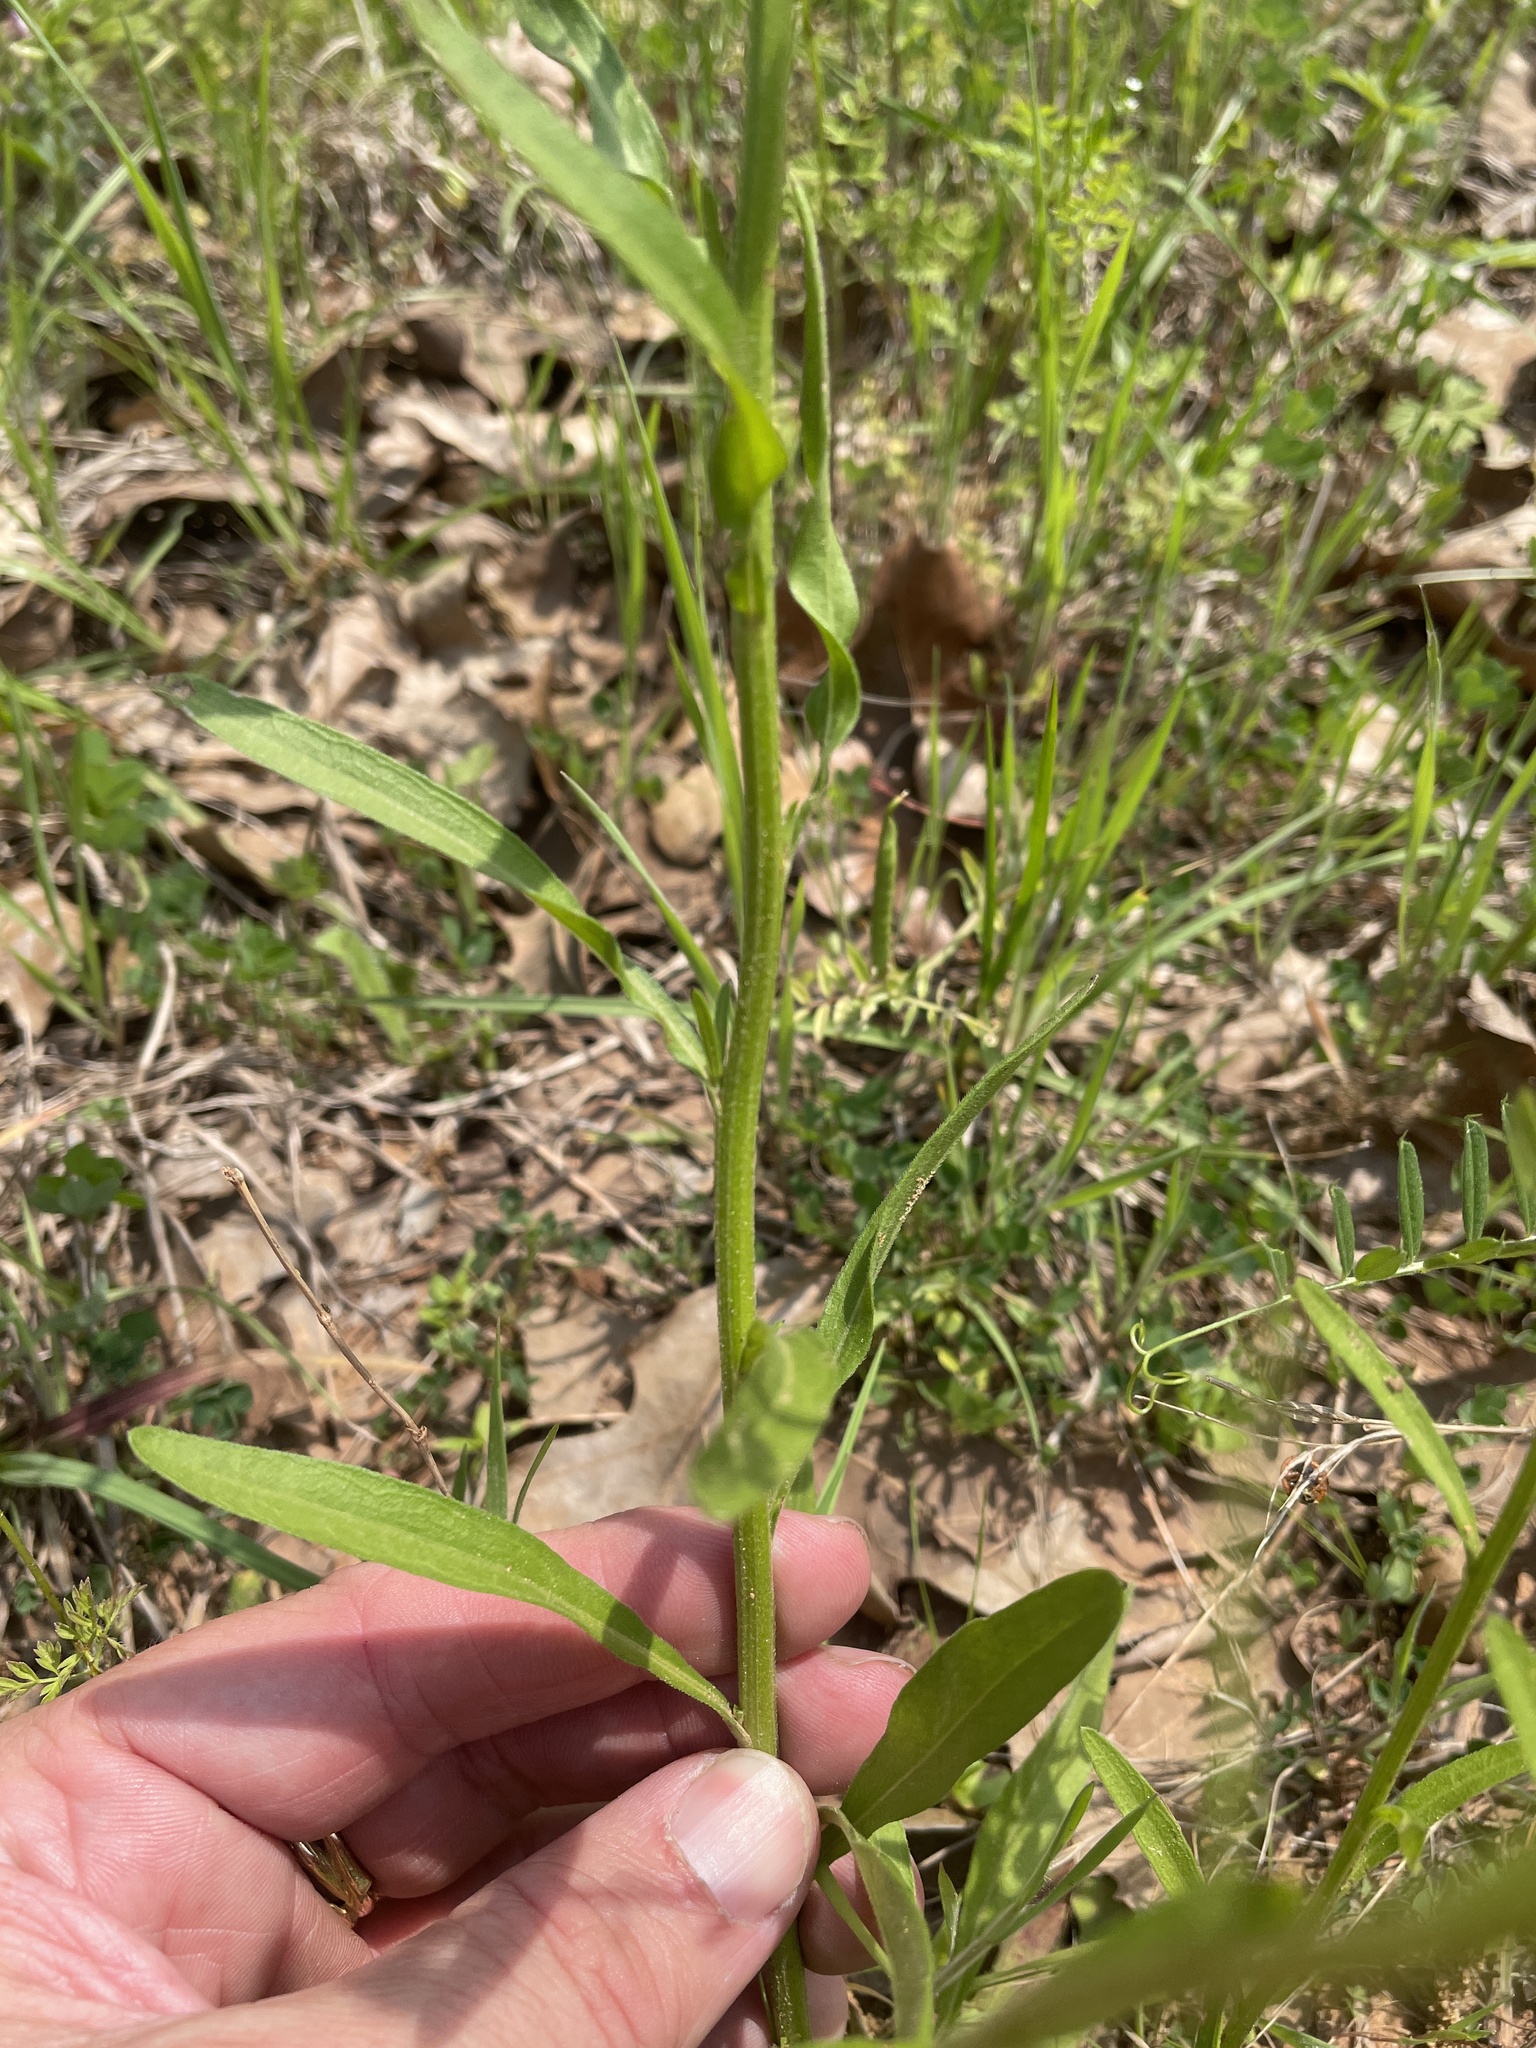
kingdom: Plantae
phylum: Tracheophyta
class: Magnoliopsida
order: Asterales
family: Asteraceae
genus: Erigeron
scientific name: Erigeron strigosus
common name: Common eastern fleabane
